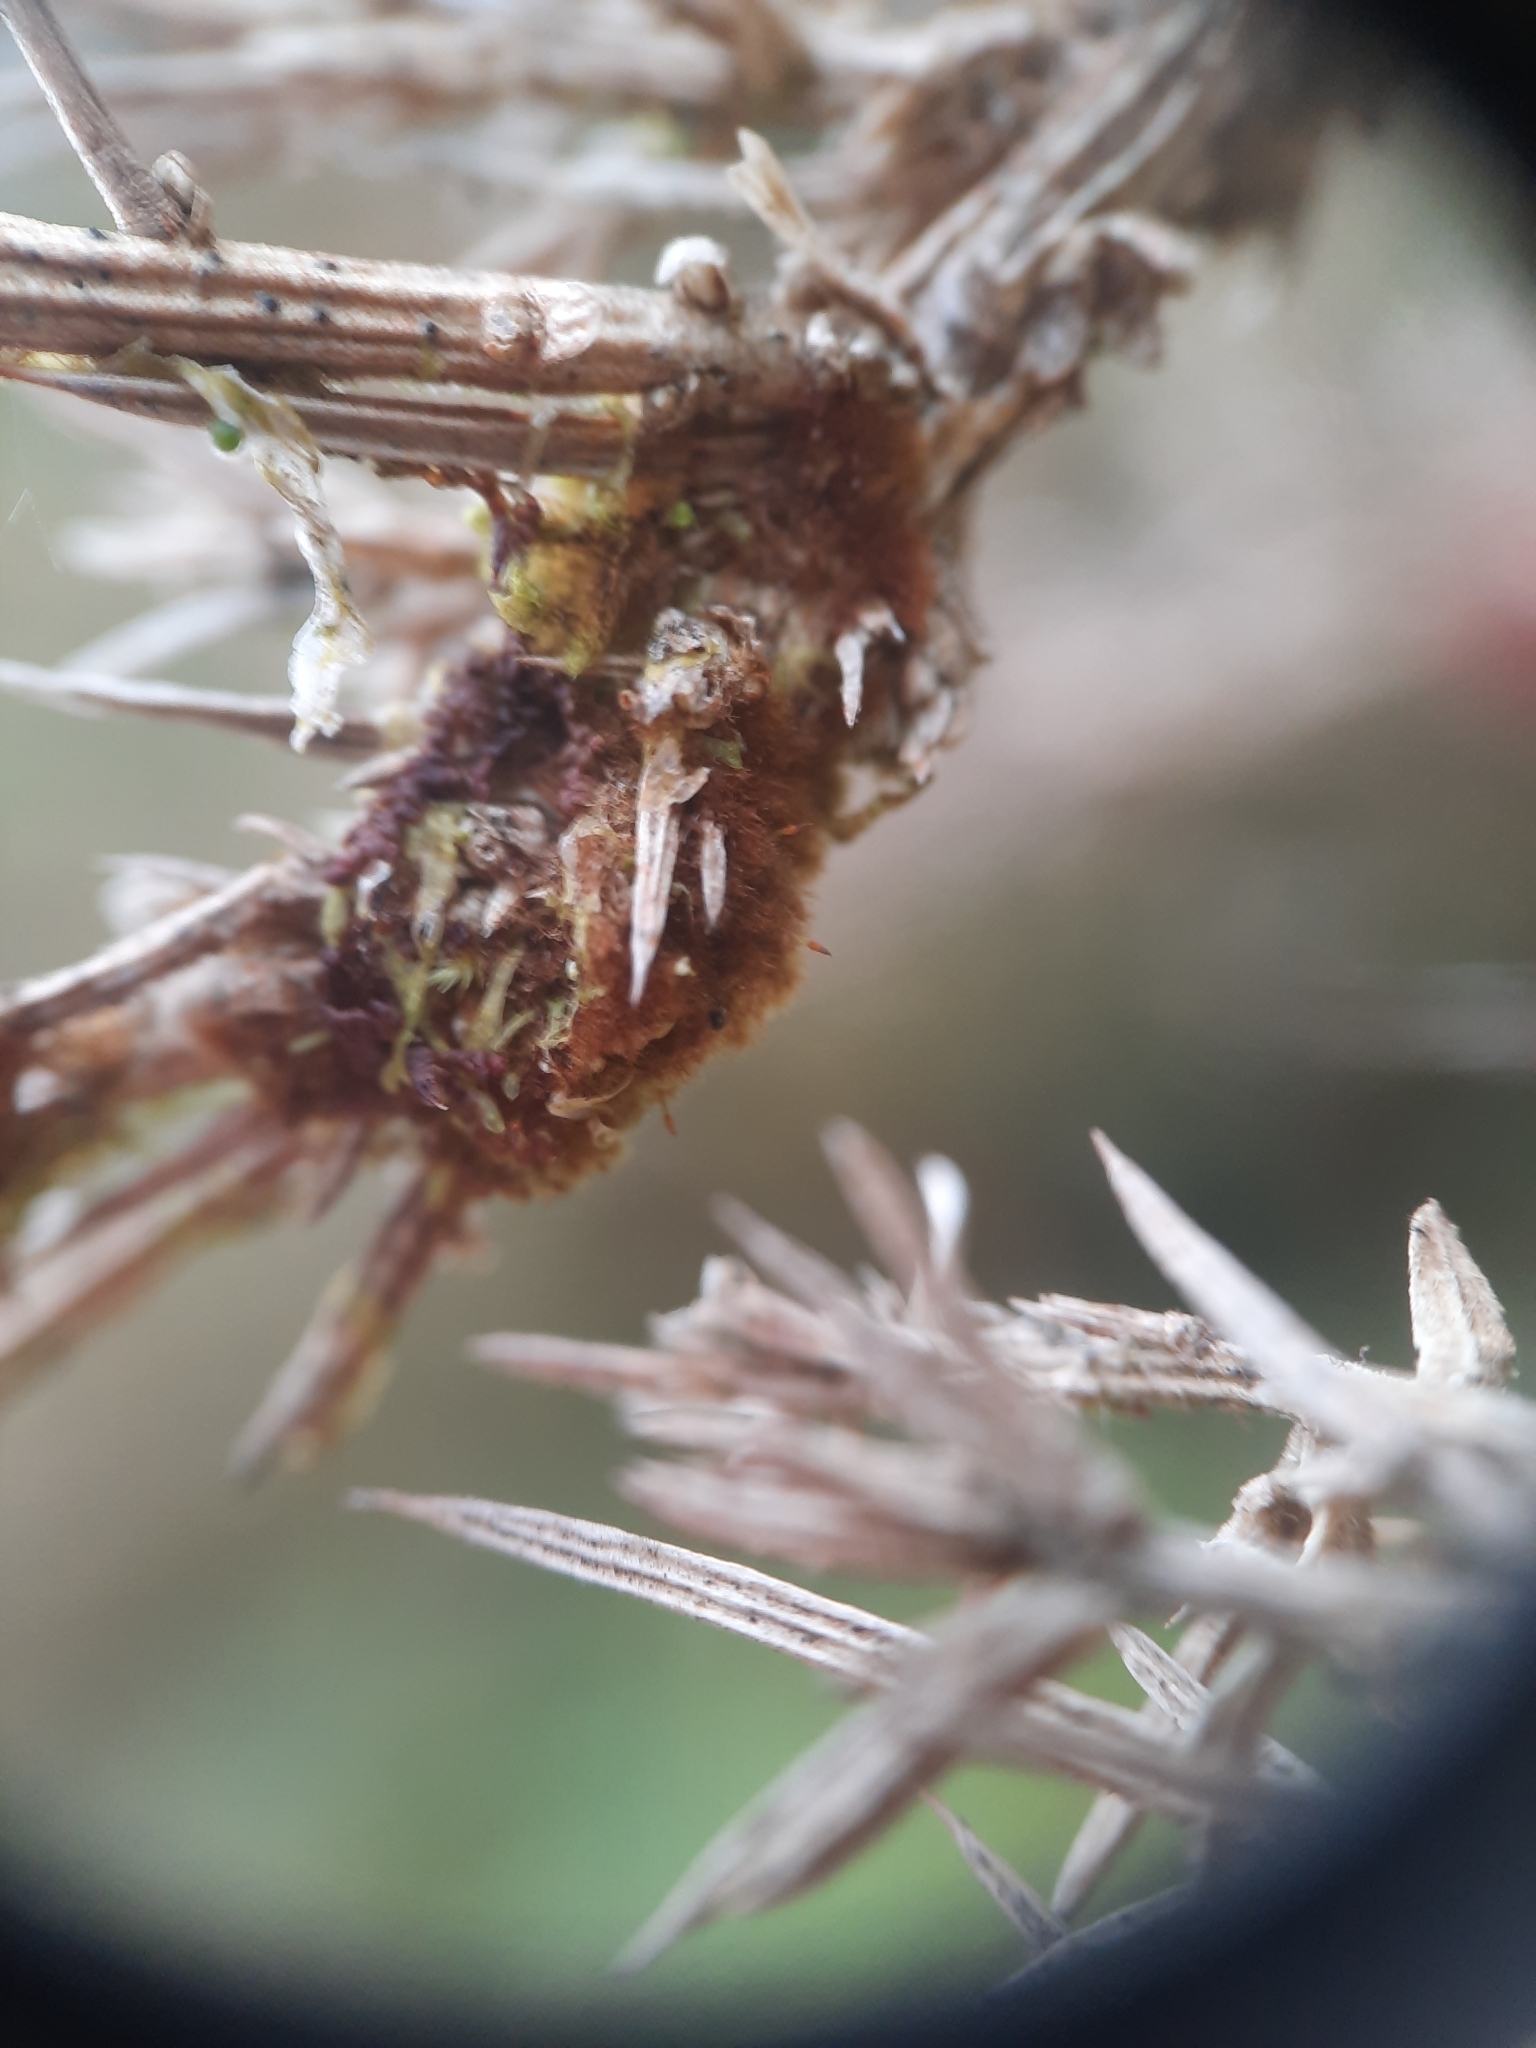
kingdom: Plantae
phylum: Bryophyta
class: Bryopsida
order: Hookeriales
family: Daltoniaceae
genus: Ephemeropsis
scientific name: Ephemeropsis trentepohlioides
